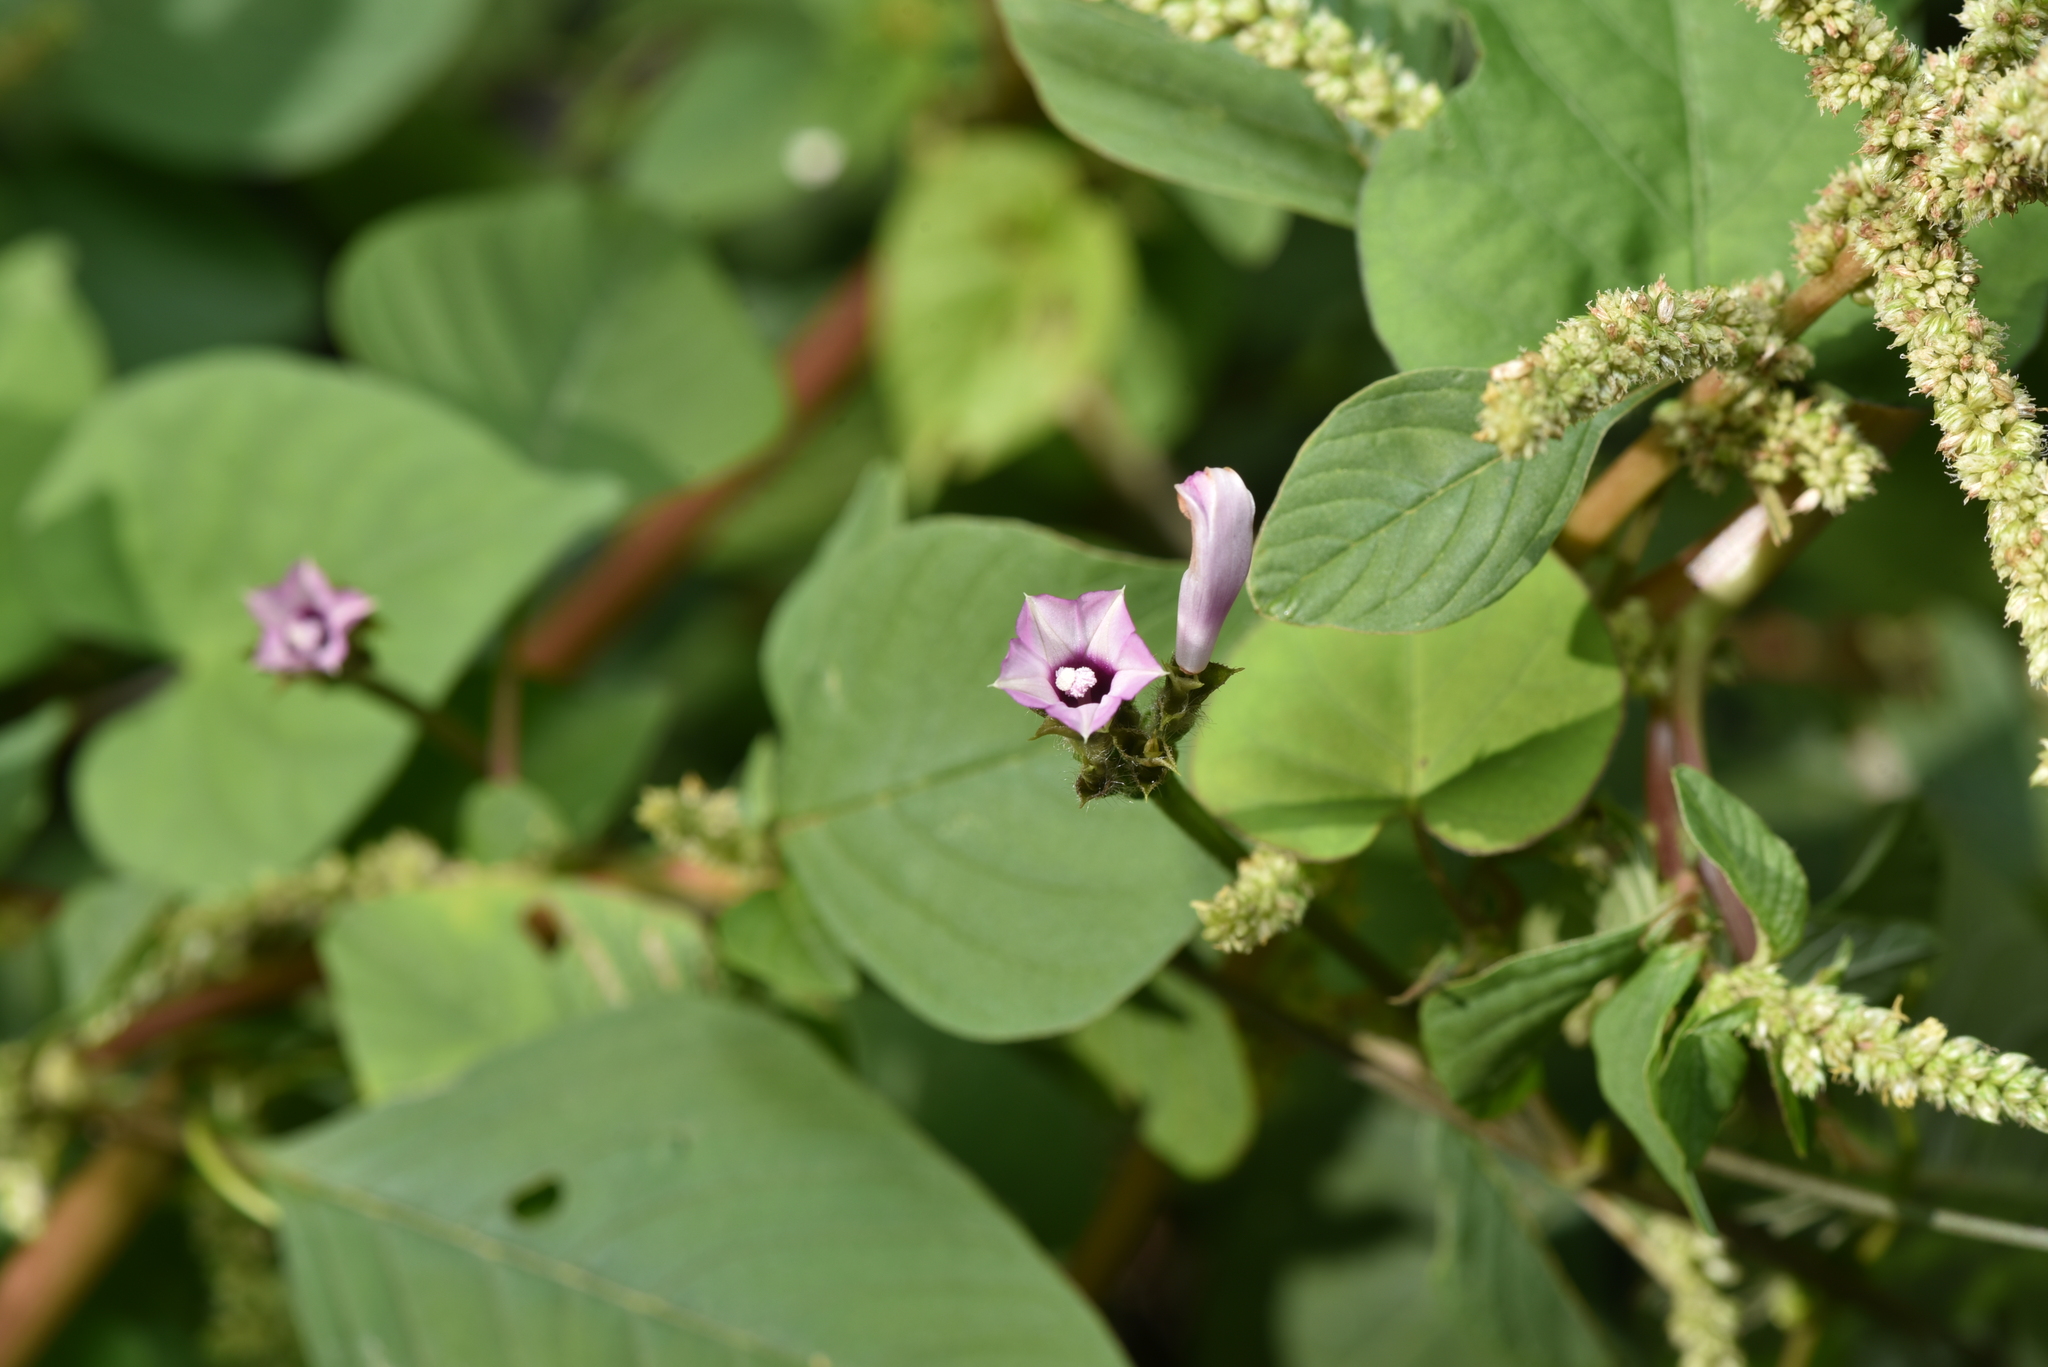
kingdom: Plantae
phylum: Tracheophyta
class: Magnoliopsida
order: Solanales
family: Convolvulaceae
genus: Ipomoea
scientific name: Ipomoea triloba
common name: Little-bell
